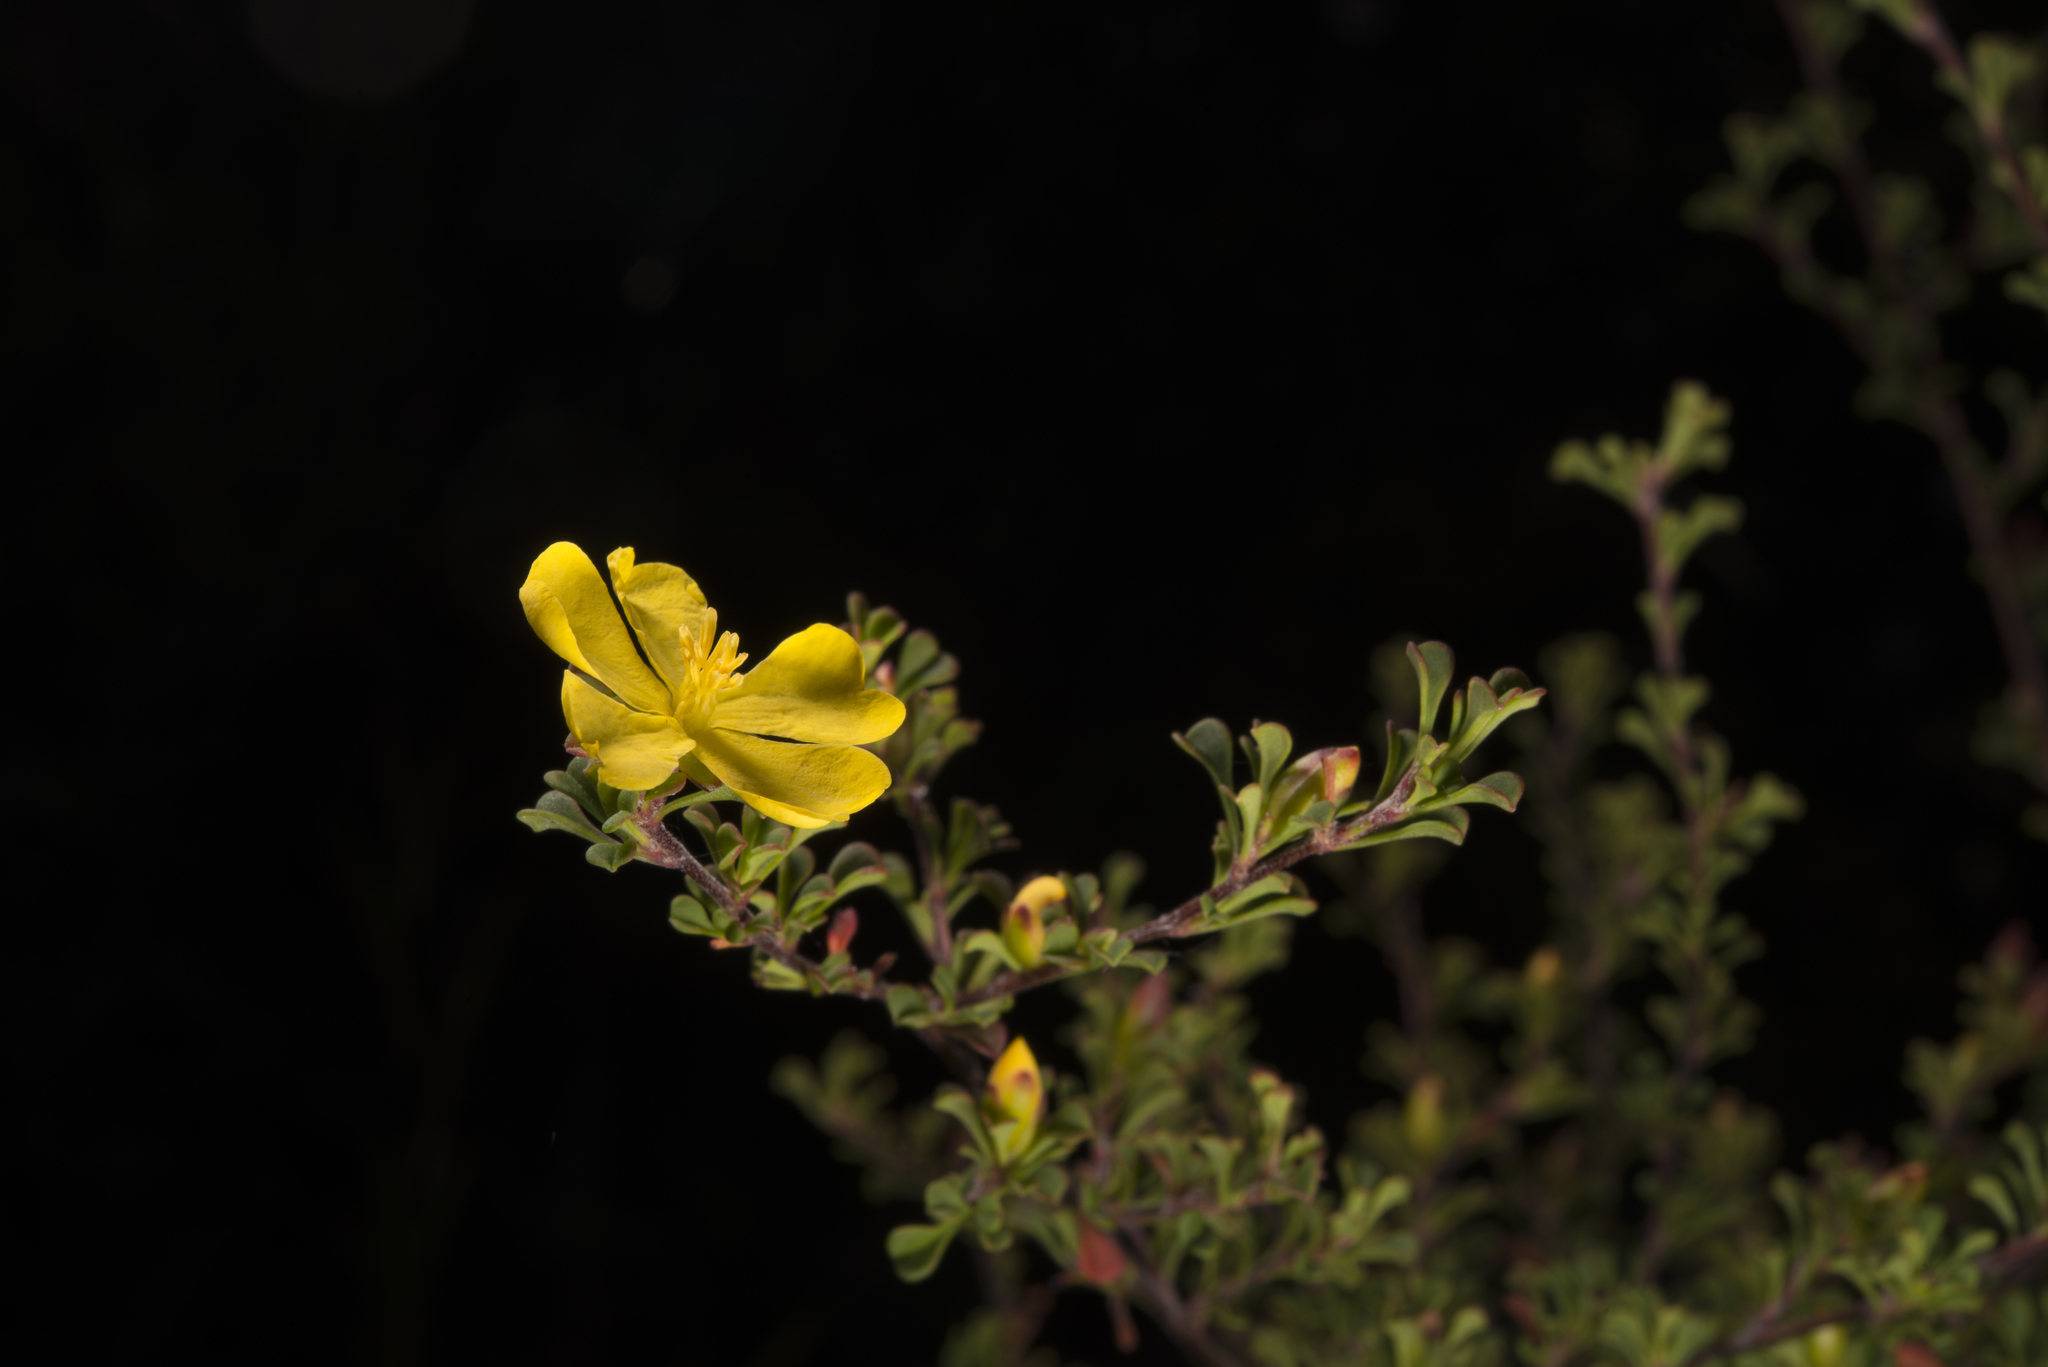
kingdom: Plantae
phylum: Tracheophyta
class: Magnoliopsida
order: Dilleniales
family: Dilleniaceae
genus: Hibbertia
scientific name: Hibbertia monogyna
